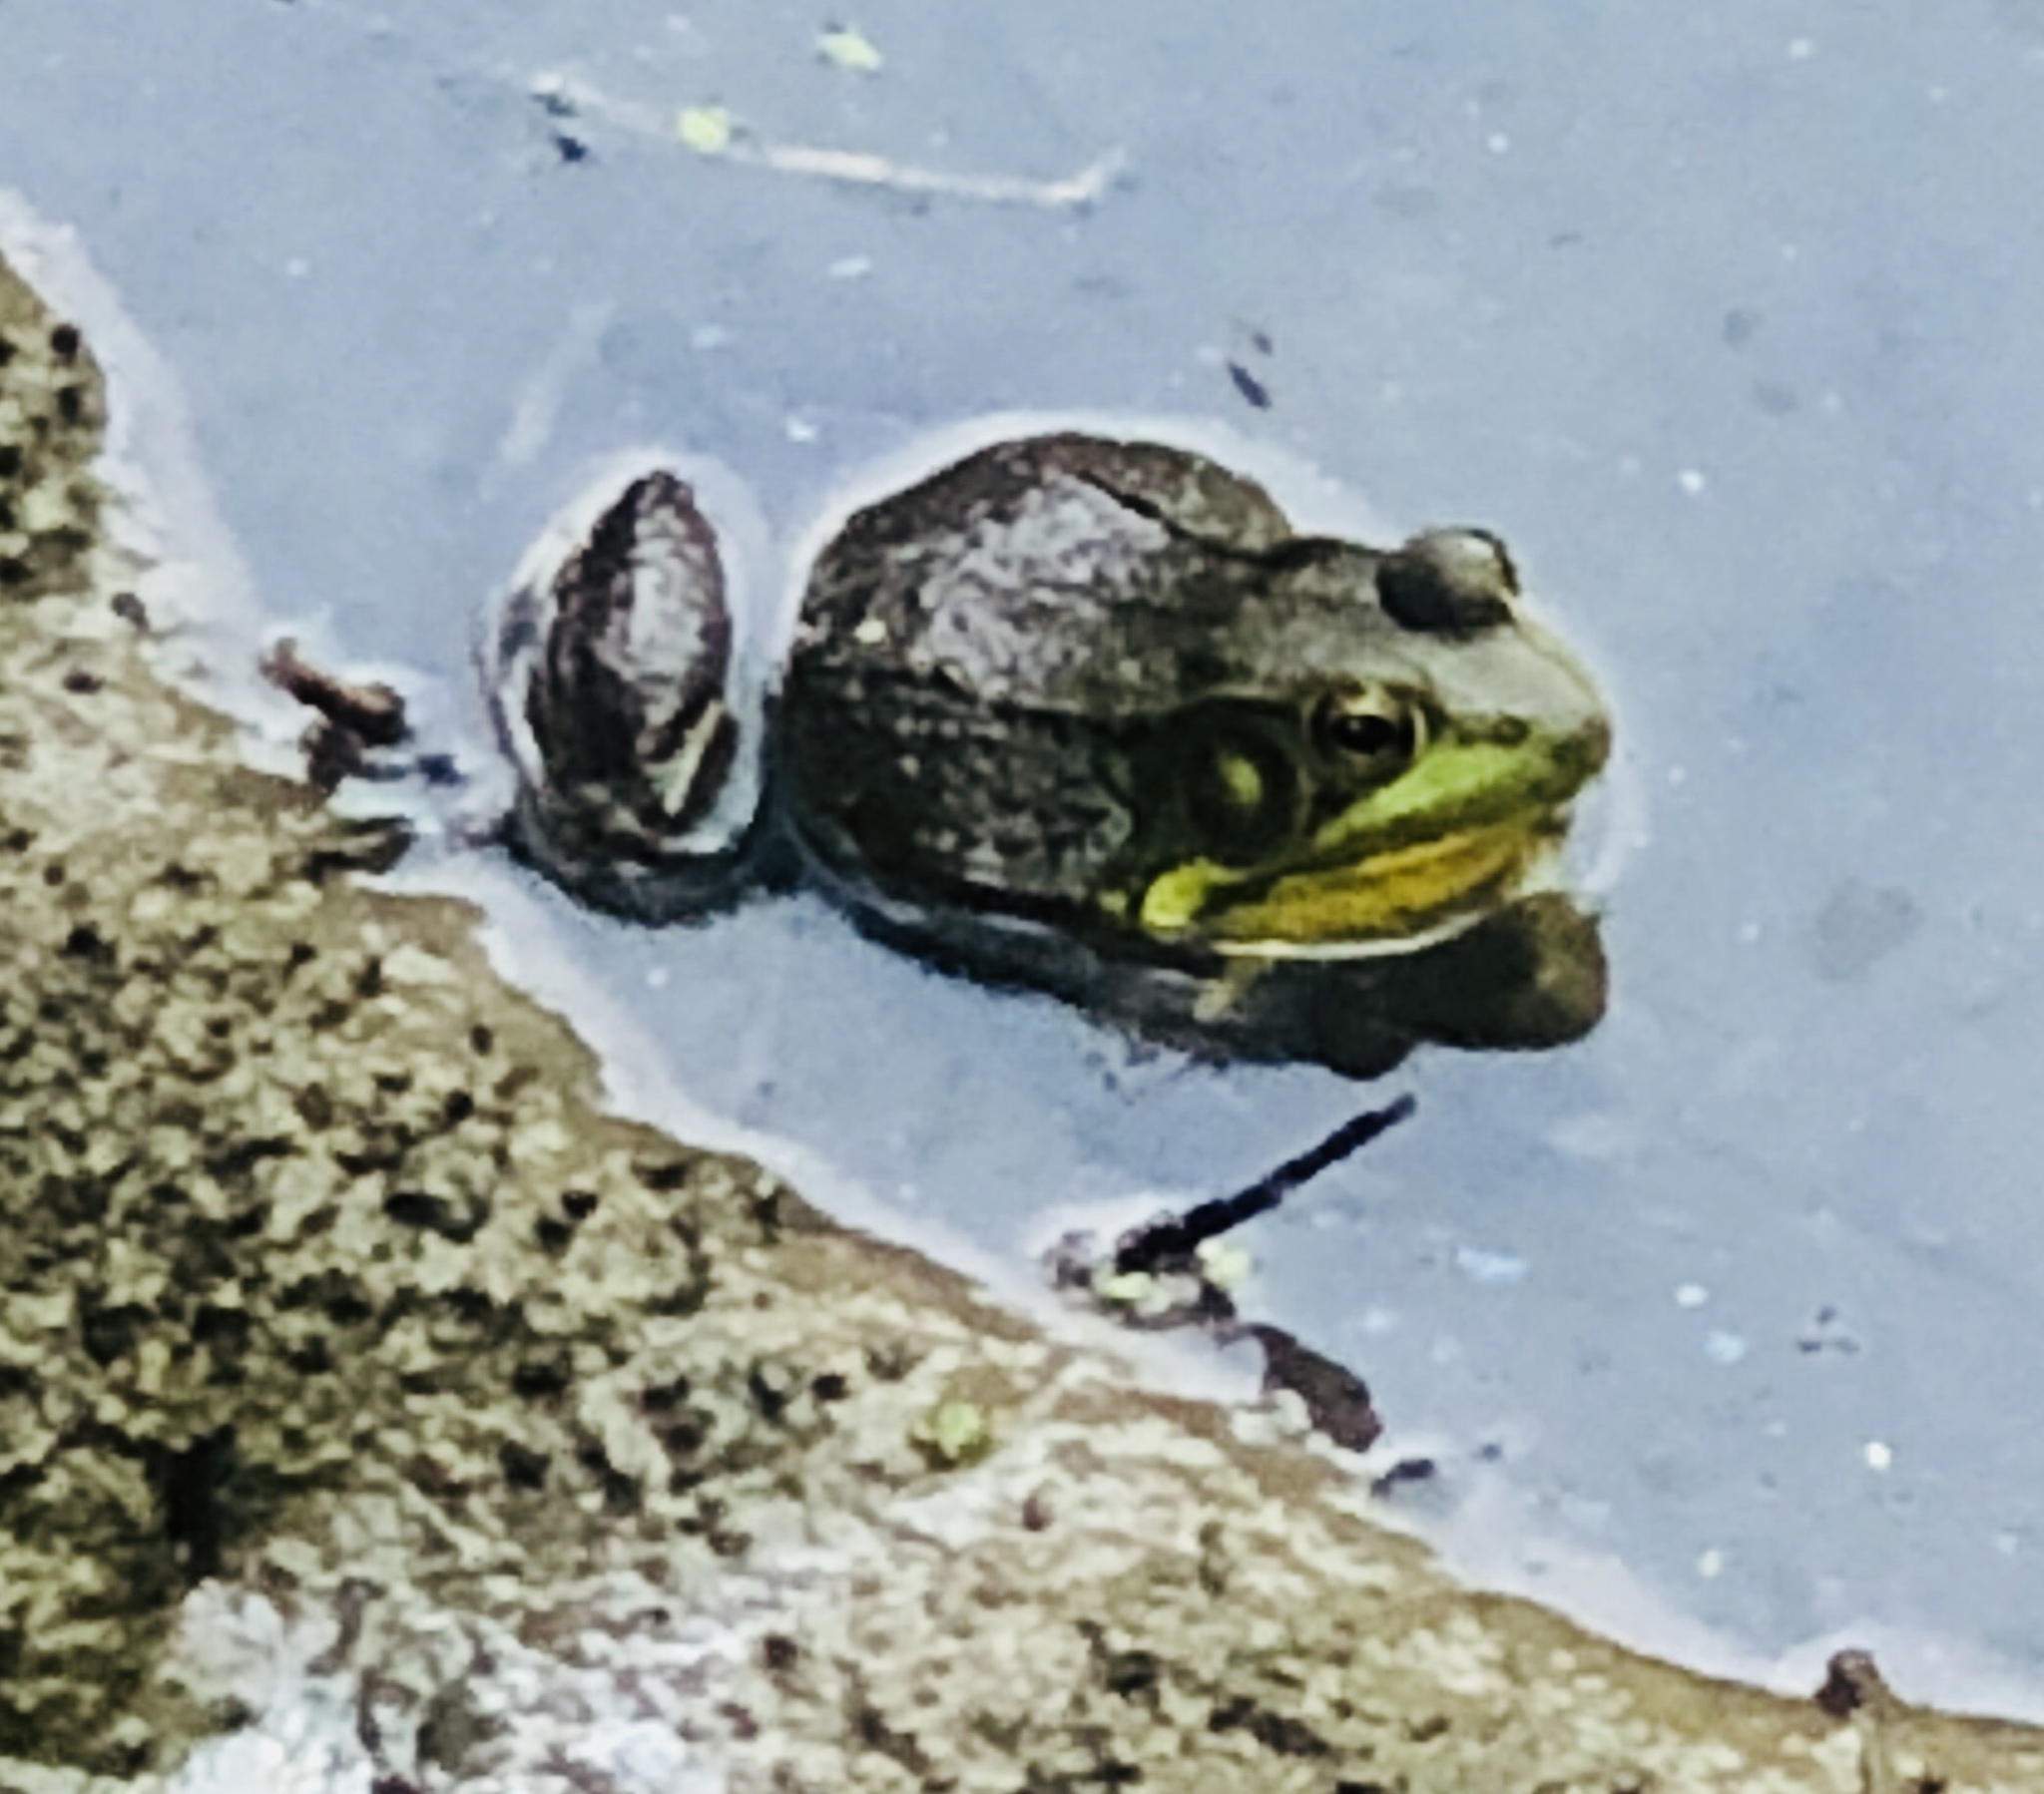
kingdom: Animalia
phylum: Chordata
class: Amphibia
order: Anura
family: Ranidae
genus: Lithobates
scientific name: Lithobates catesbeianus
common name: American bullfrog
